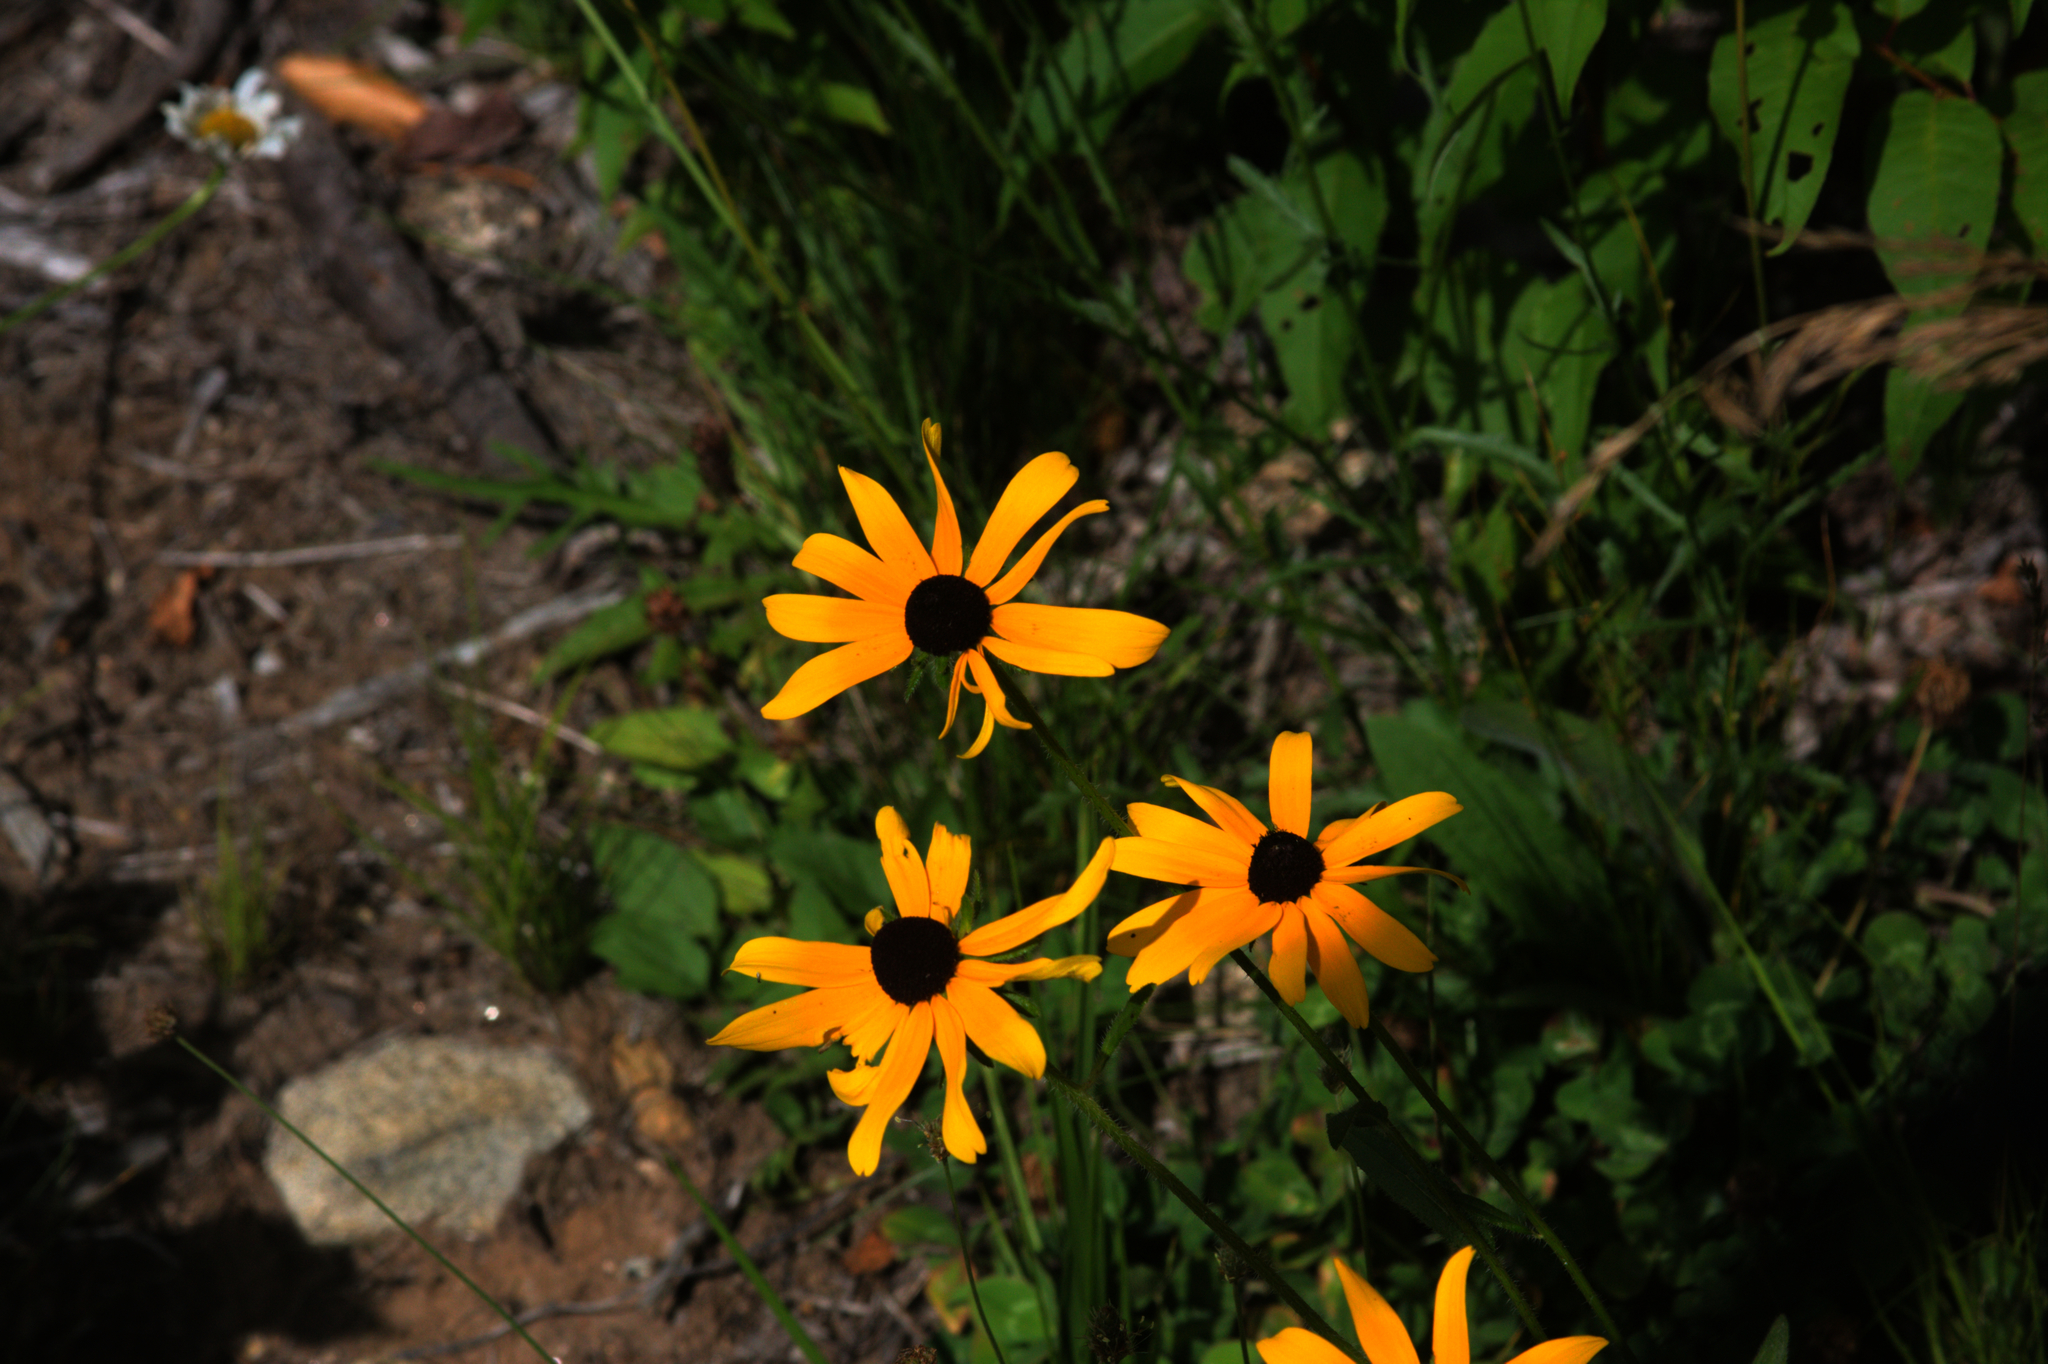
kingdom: Plantae
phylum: Tracheophyta
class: Magnoliopsida
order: Asterales
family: Asteraceae
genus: Rudbeckia
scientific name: Rudbeckia hirta
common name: Black-eyed-susan
